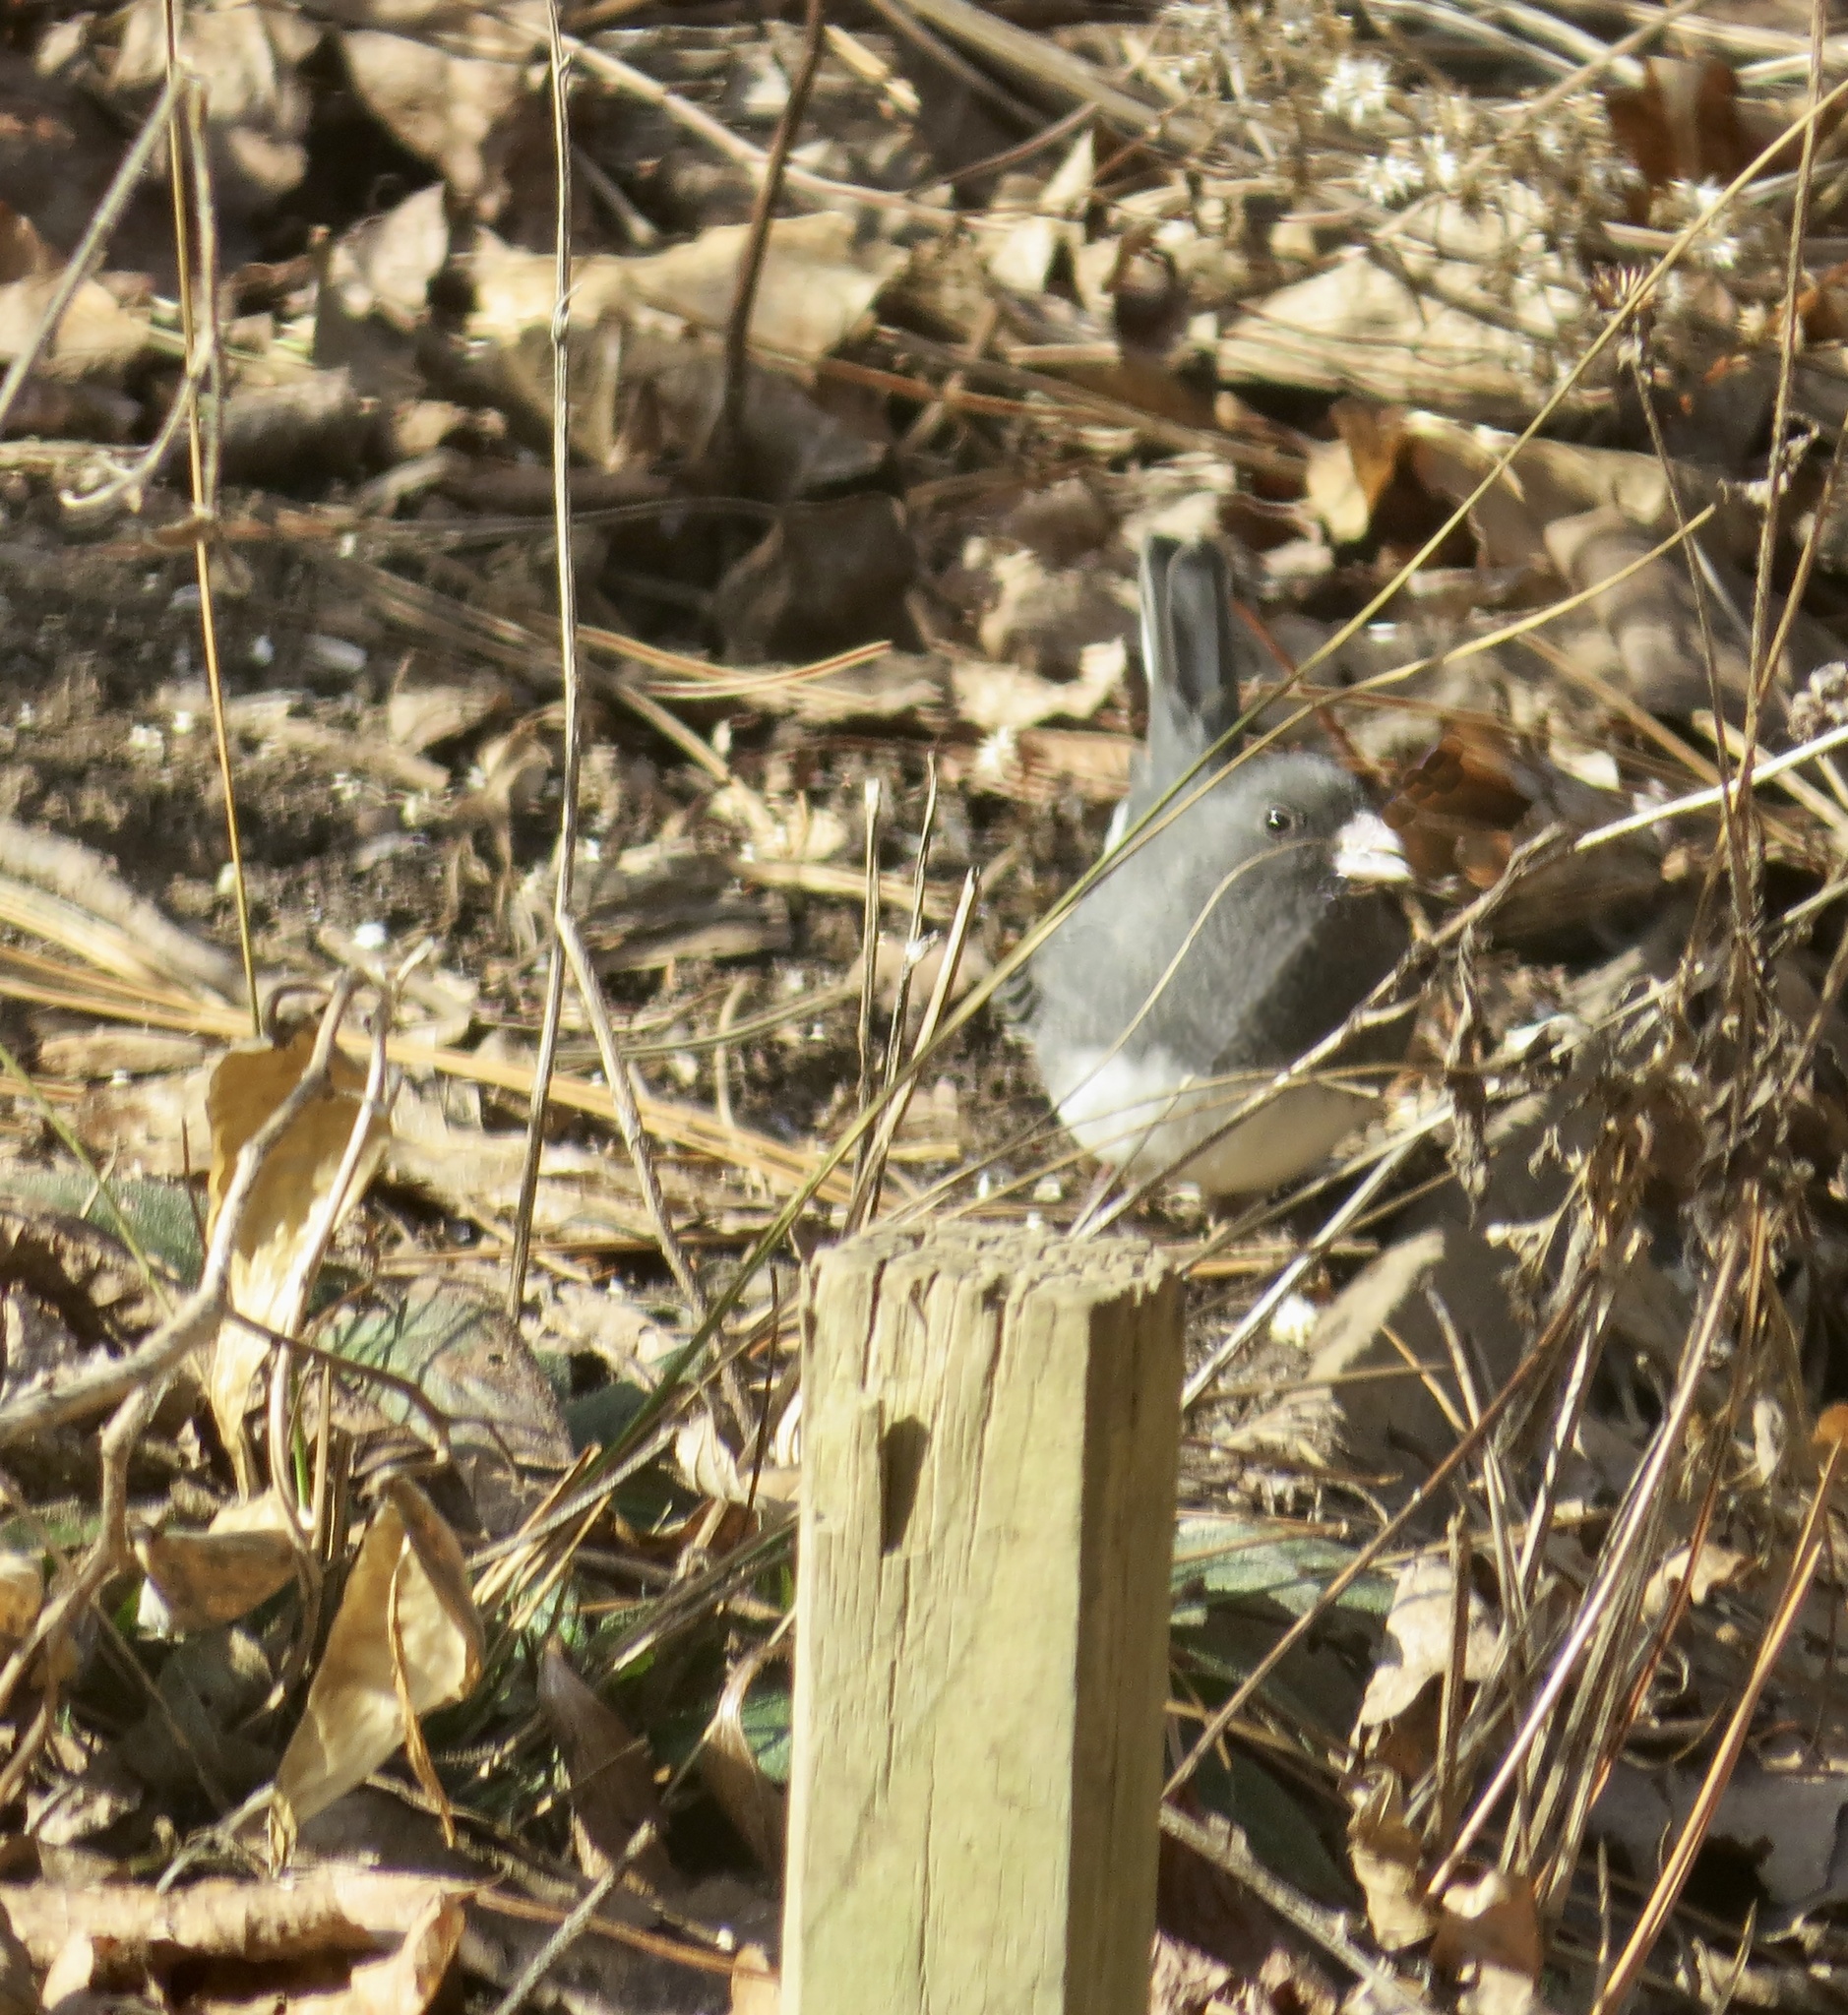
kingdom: Animalia
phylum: Chordata
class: Aves
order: Passeriformes
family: Passerellidae
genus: Junco
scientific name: Junco hyemalis
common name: Dark-eyed junco
